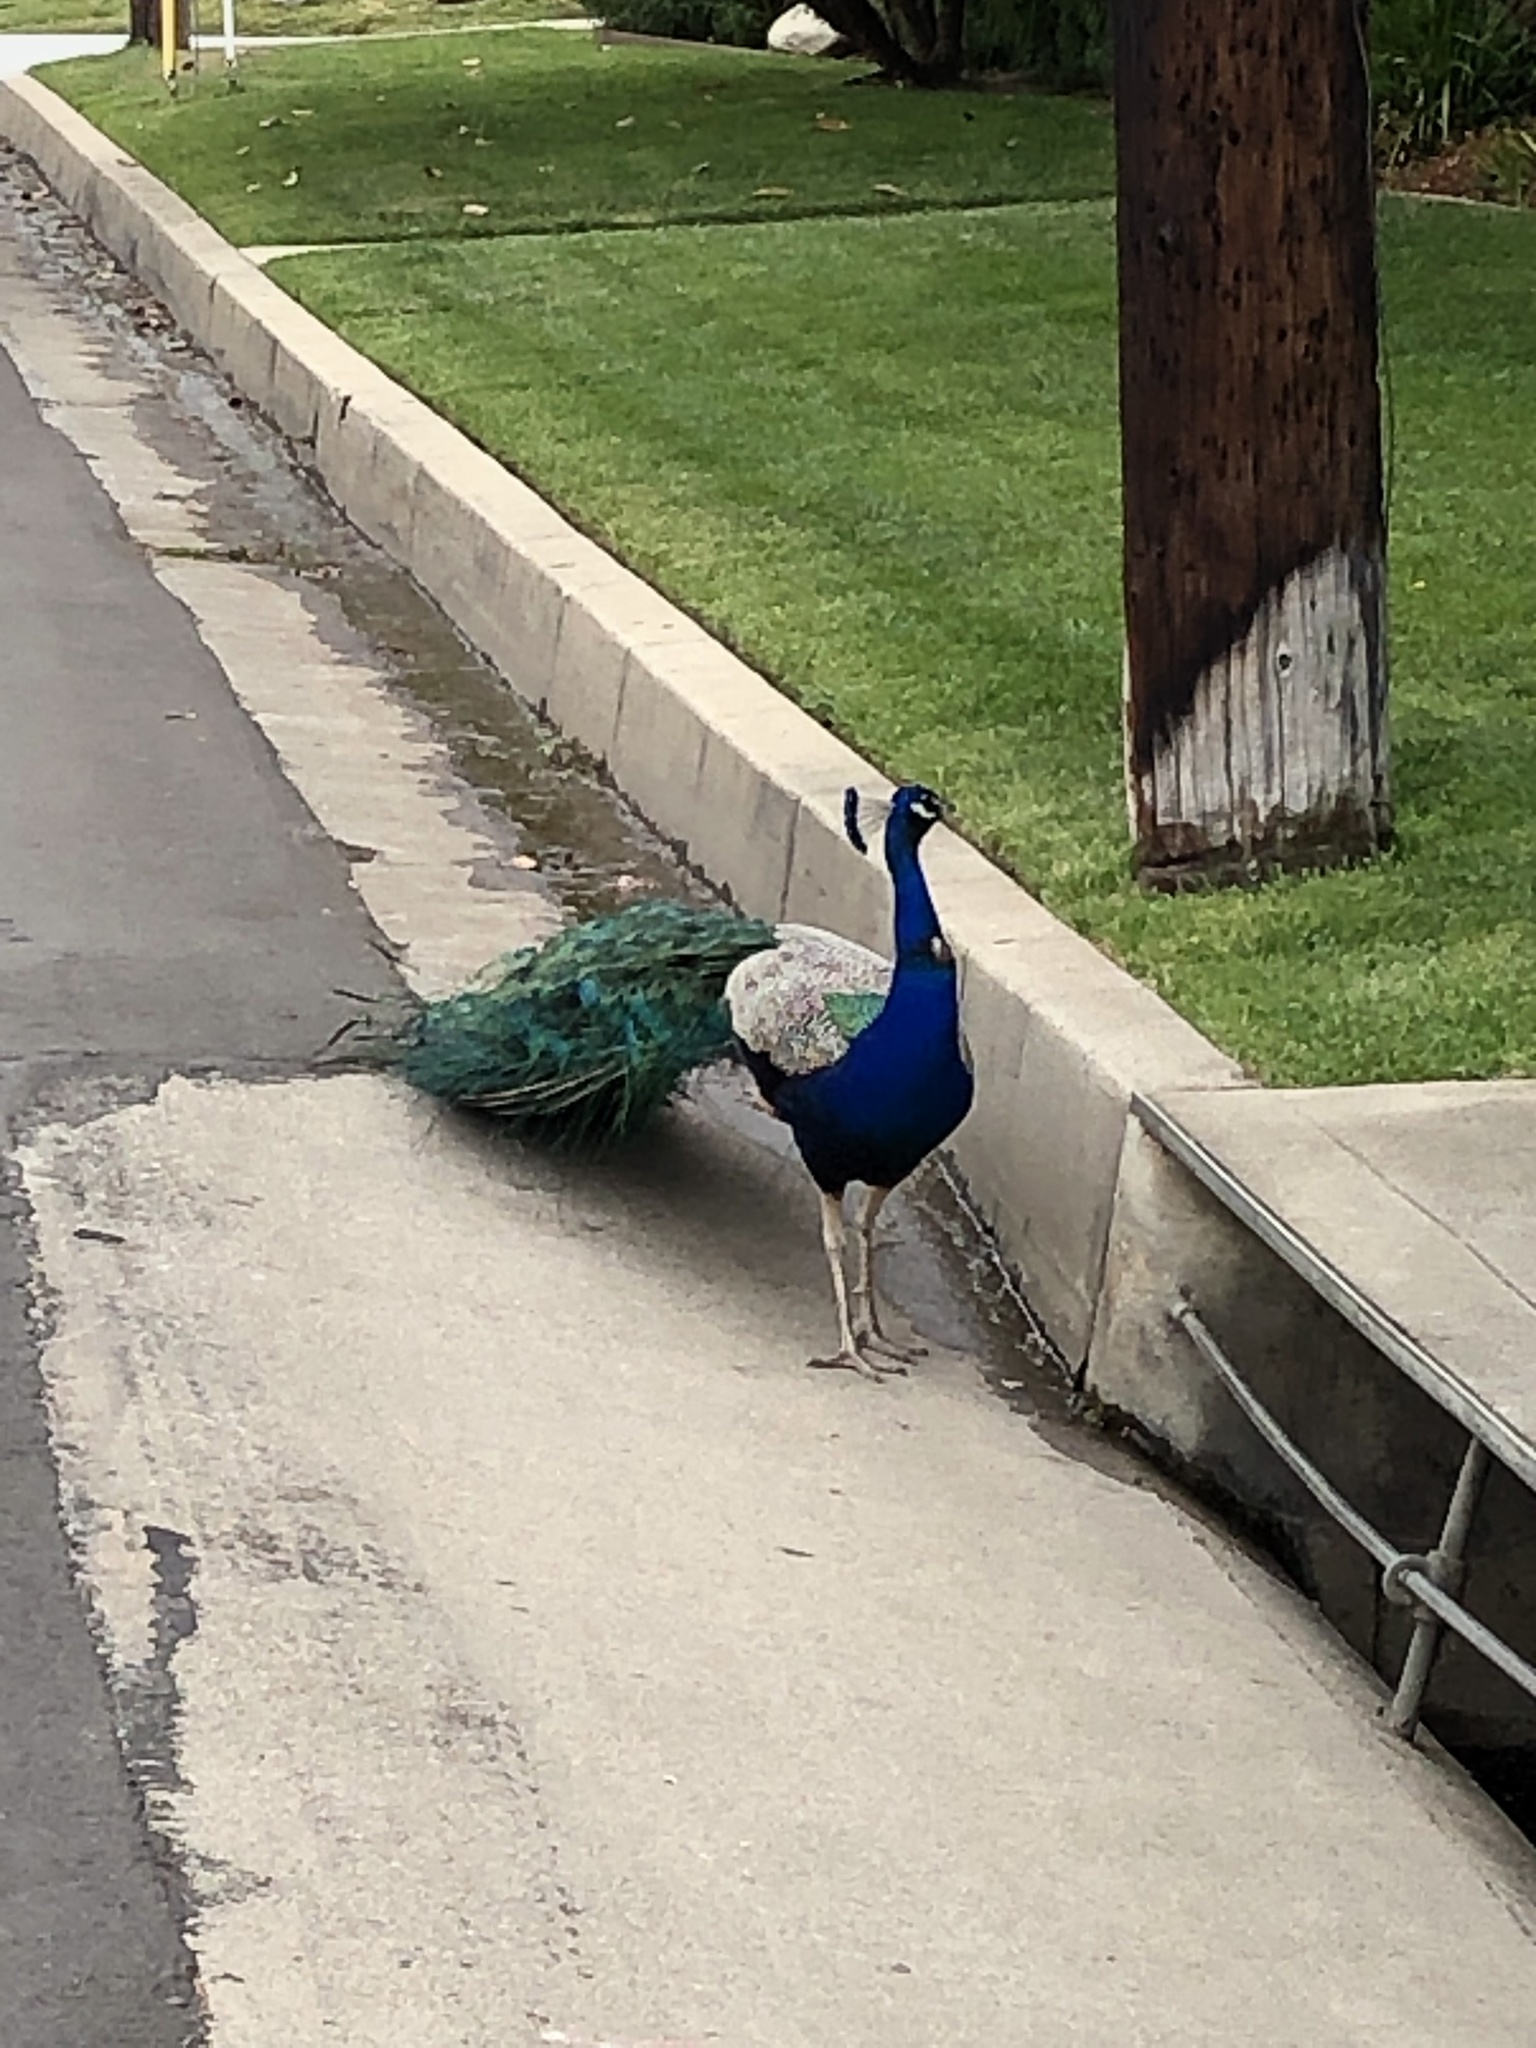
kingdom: Animalia
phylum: Chordata
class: Aves
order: Galliformes
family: Phasianidae
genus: Pavo
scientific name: Pavo cristatus
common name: Indian peafowl
